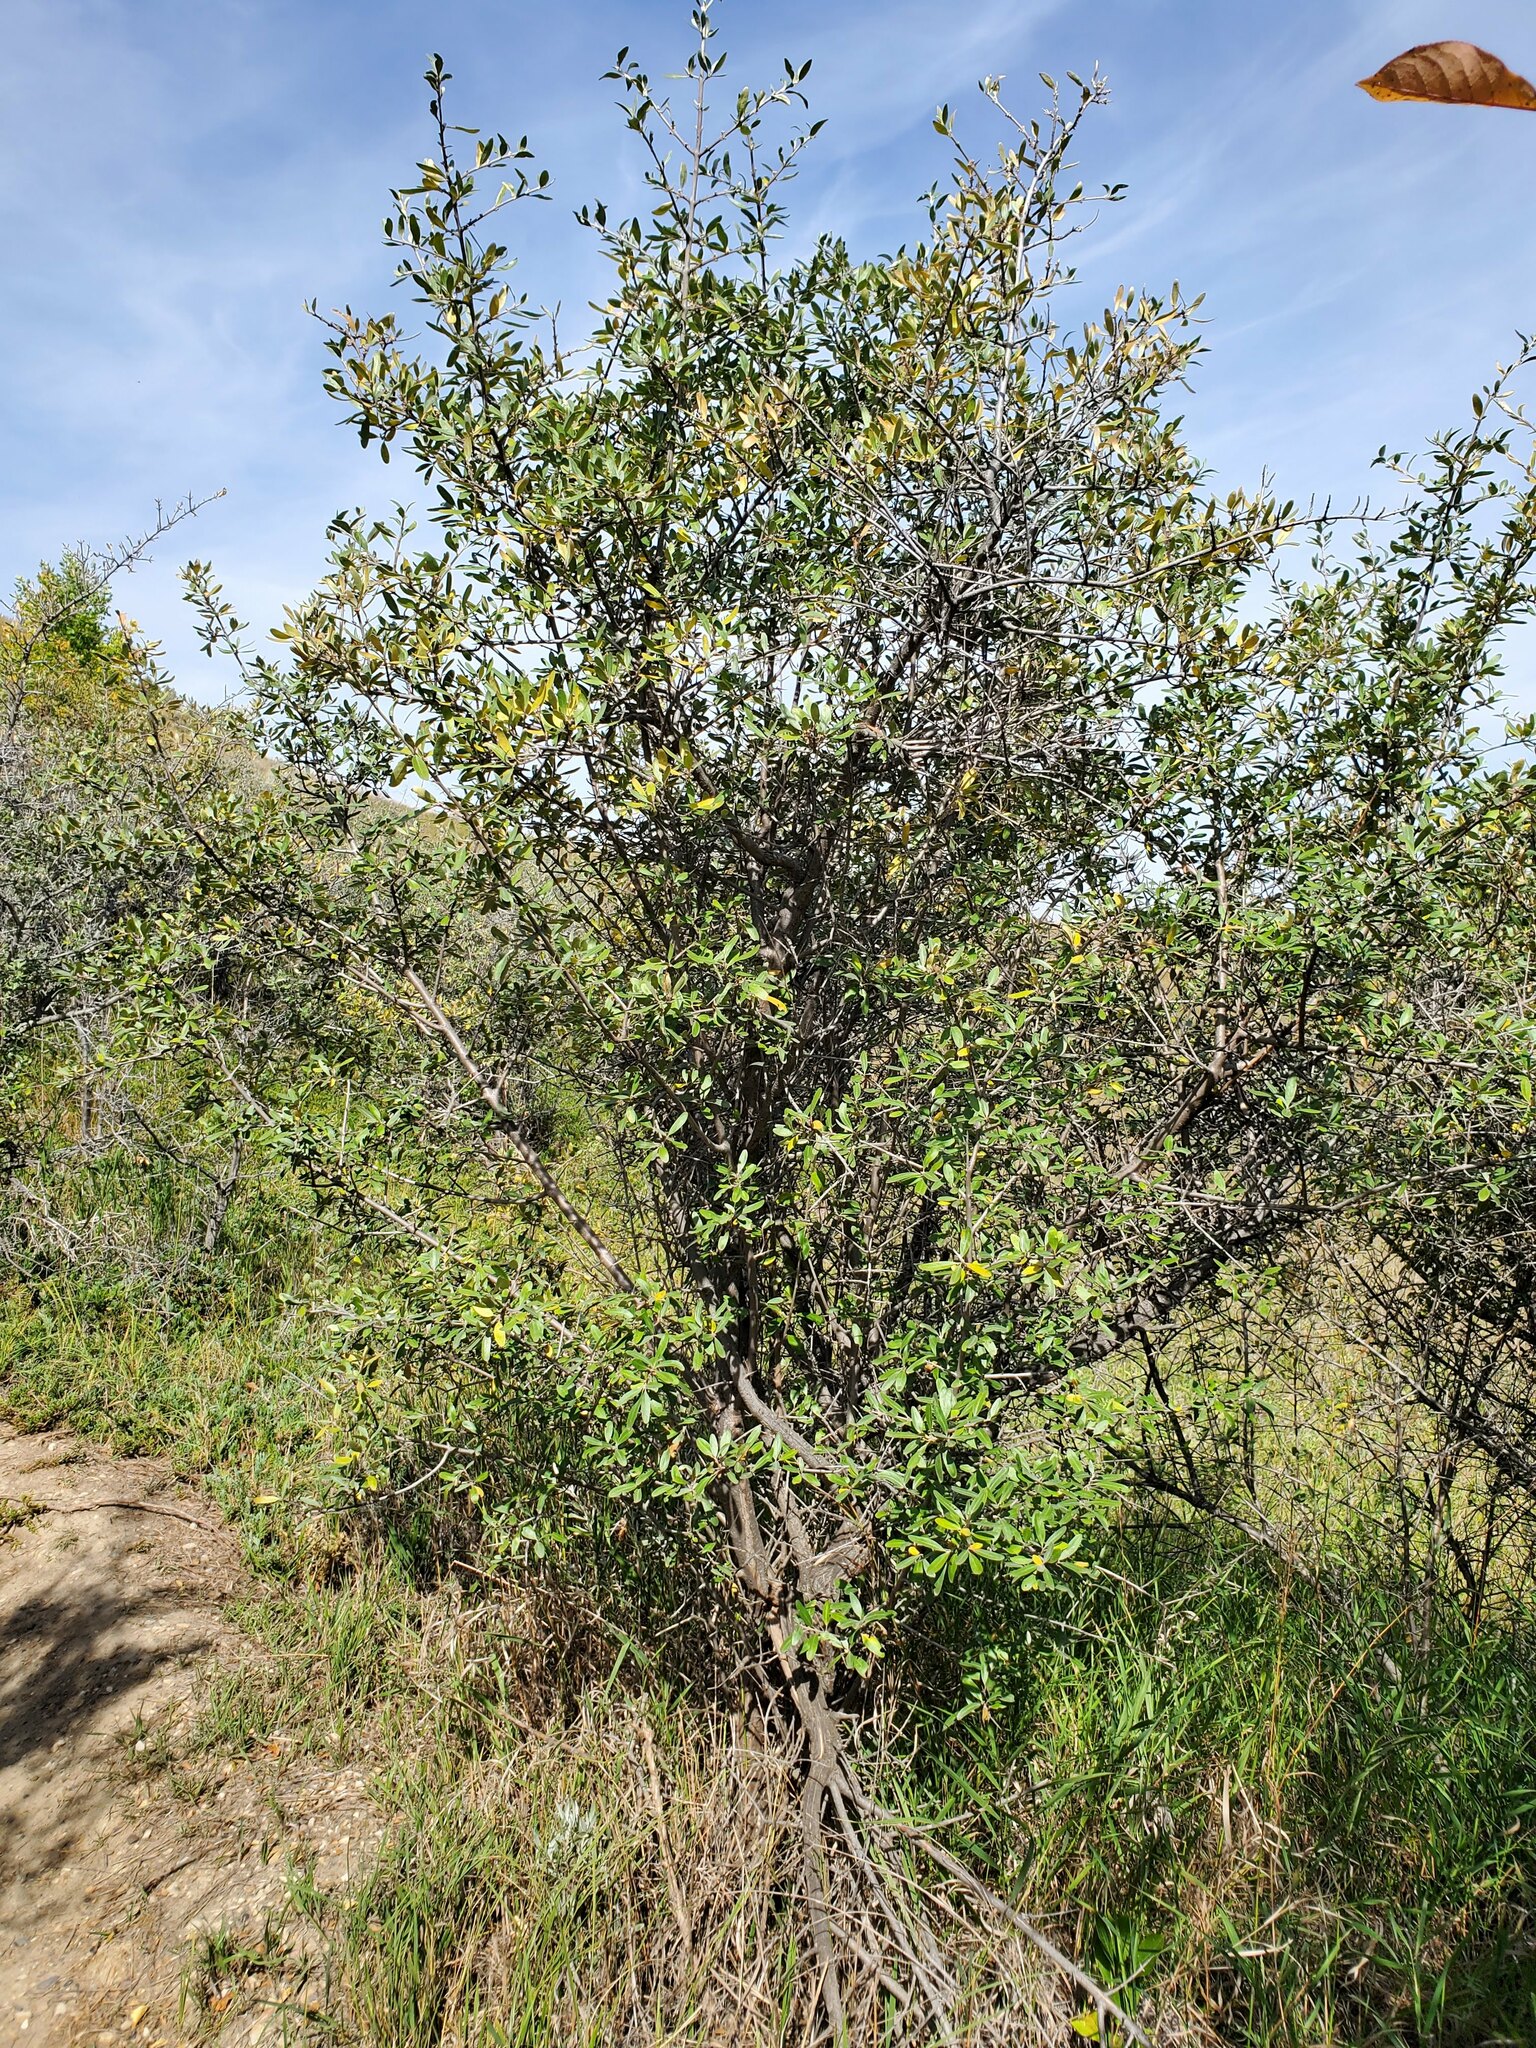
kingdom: Plantae
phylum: Tracheophyta
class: Magnoliopsida
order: Rosales
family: Elaeagnaceae
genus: Shepherdia
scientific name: Shepherdia argentea
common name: Silver buffaloberry
